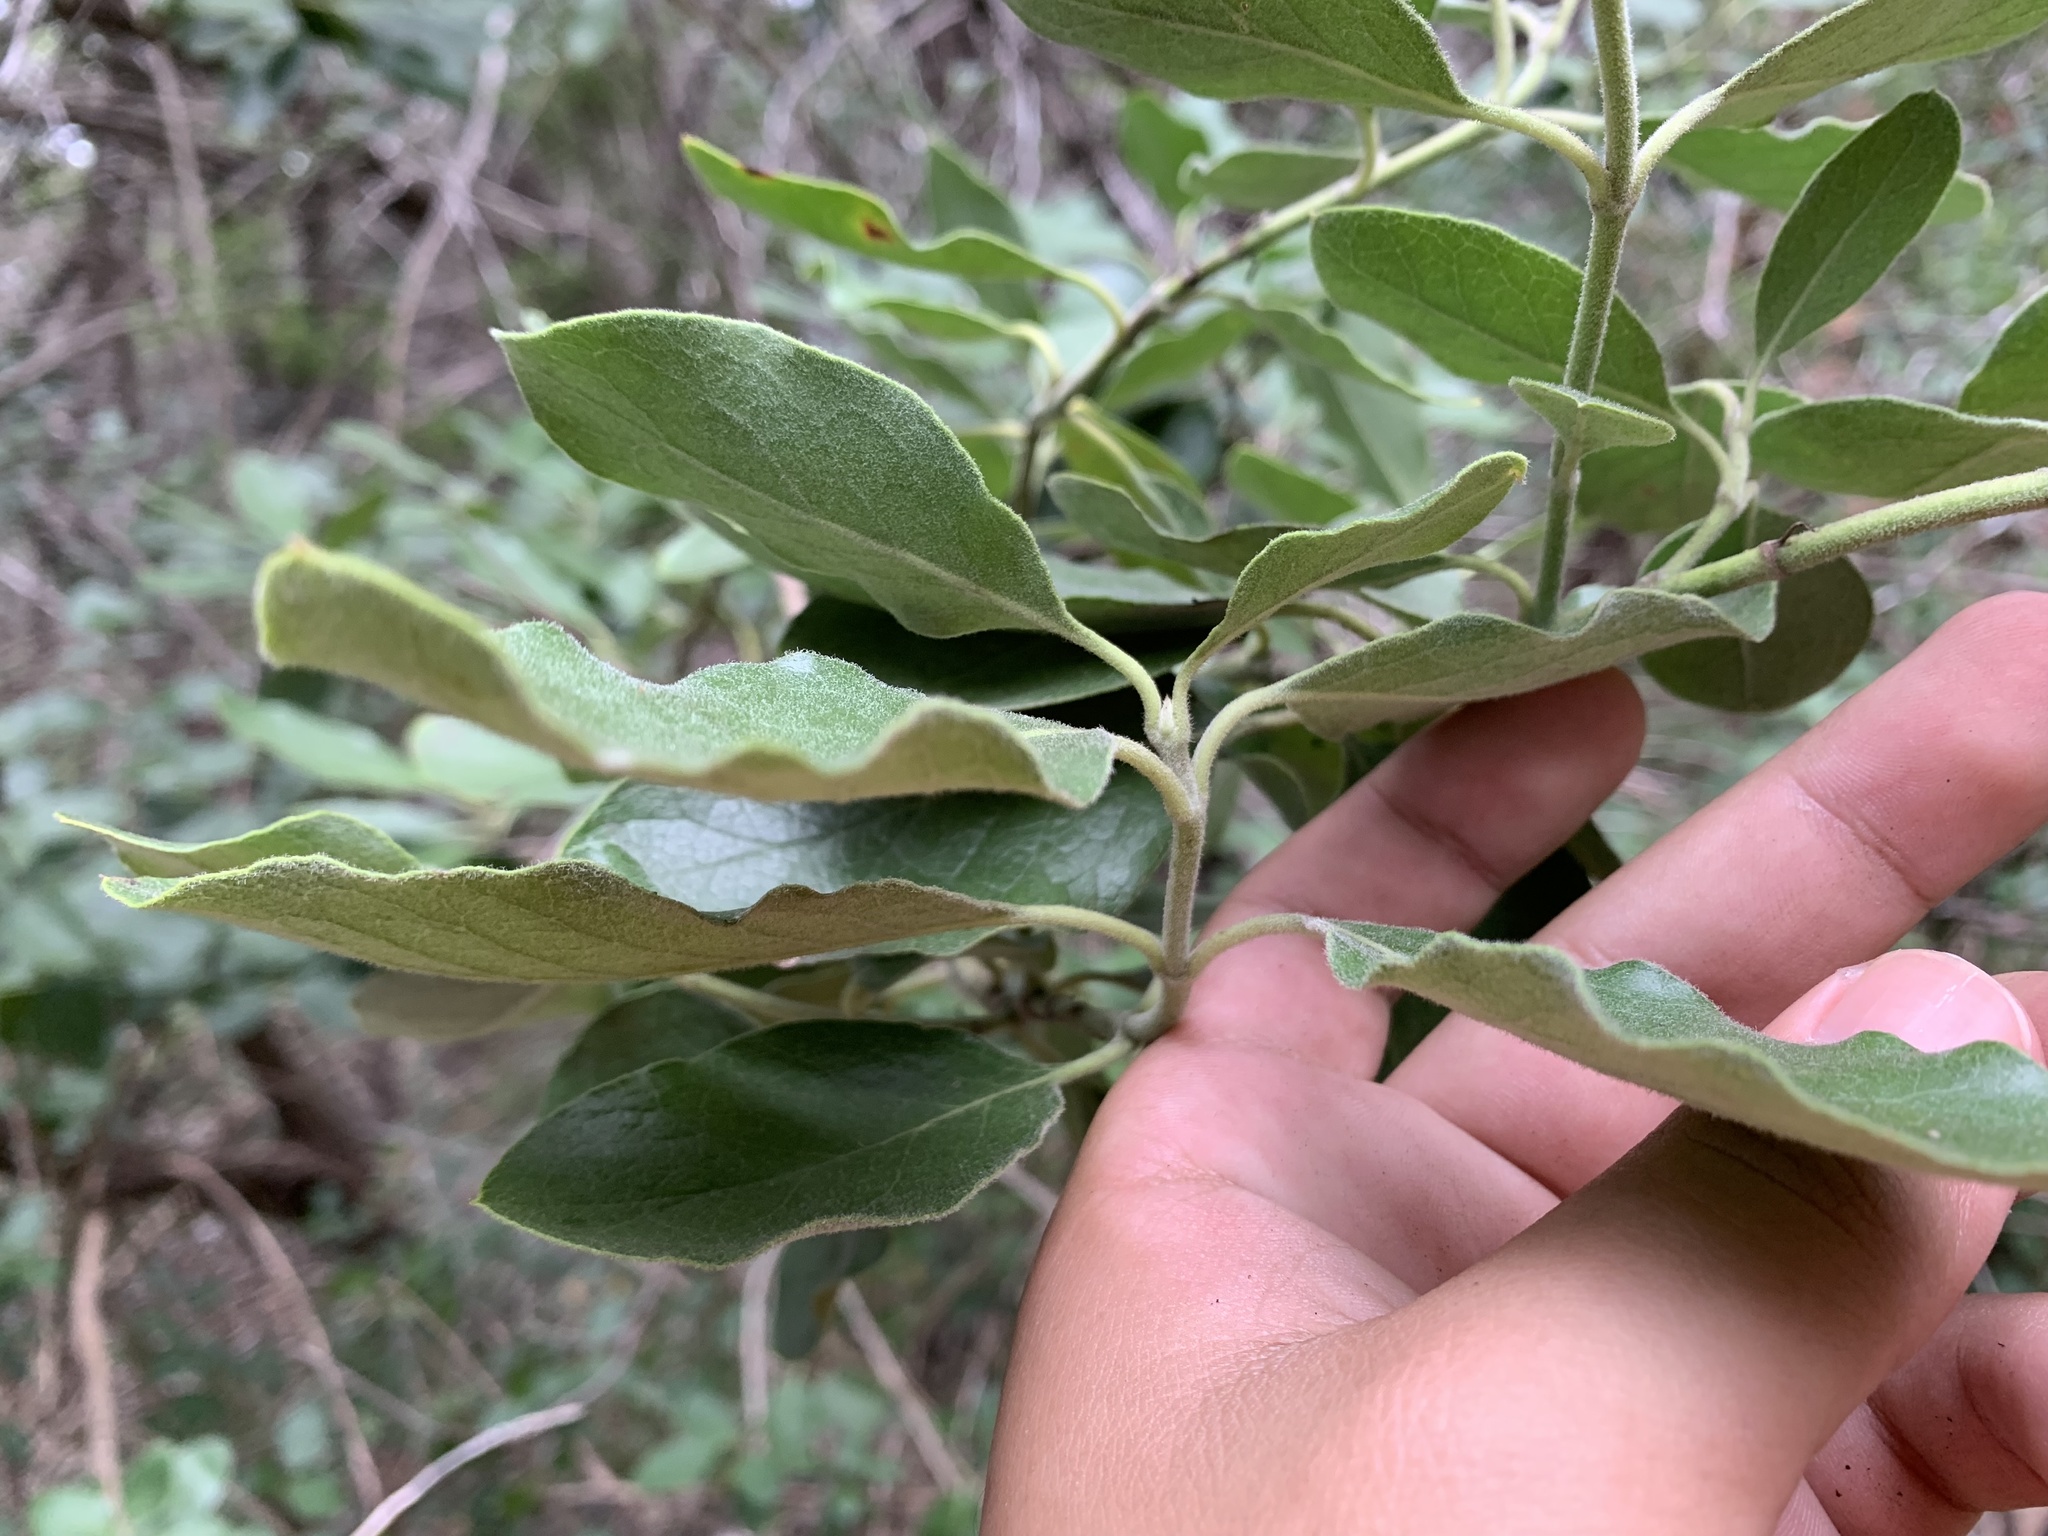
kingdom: Plantae
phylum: Tracheophyta
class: Magnoliopsida
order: Garryales
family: Garryaceae
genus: Garrya
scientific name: Garrya lindheimeri
